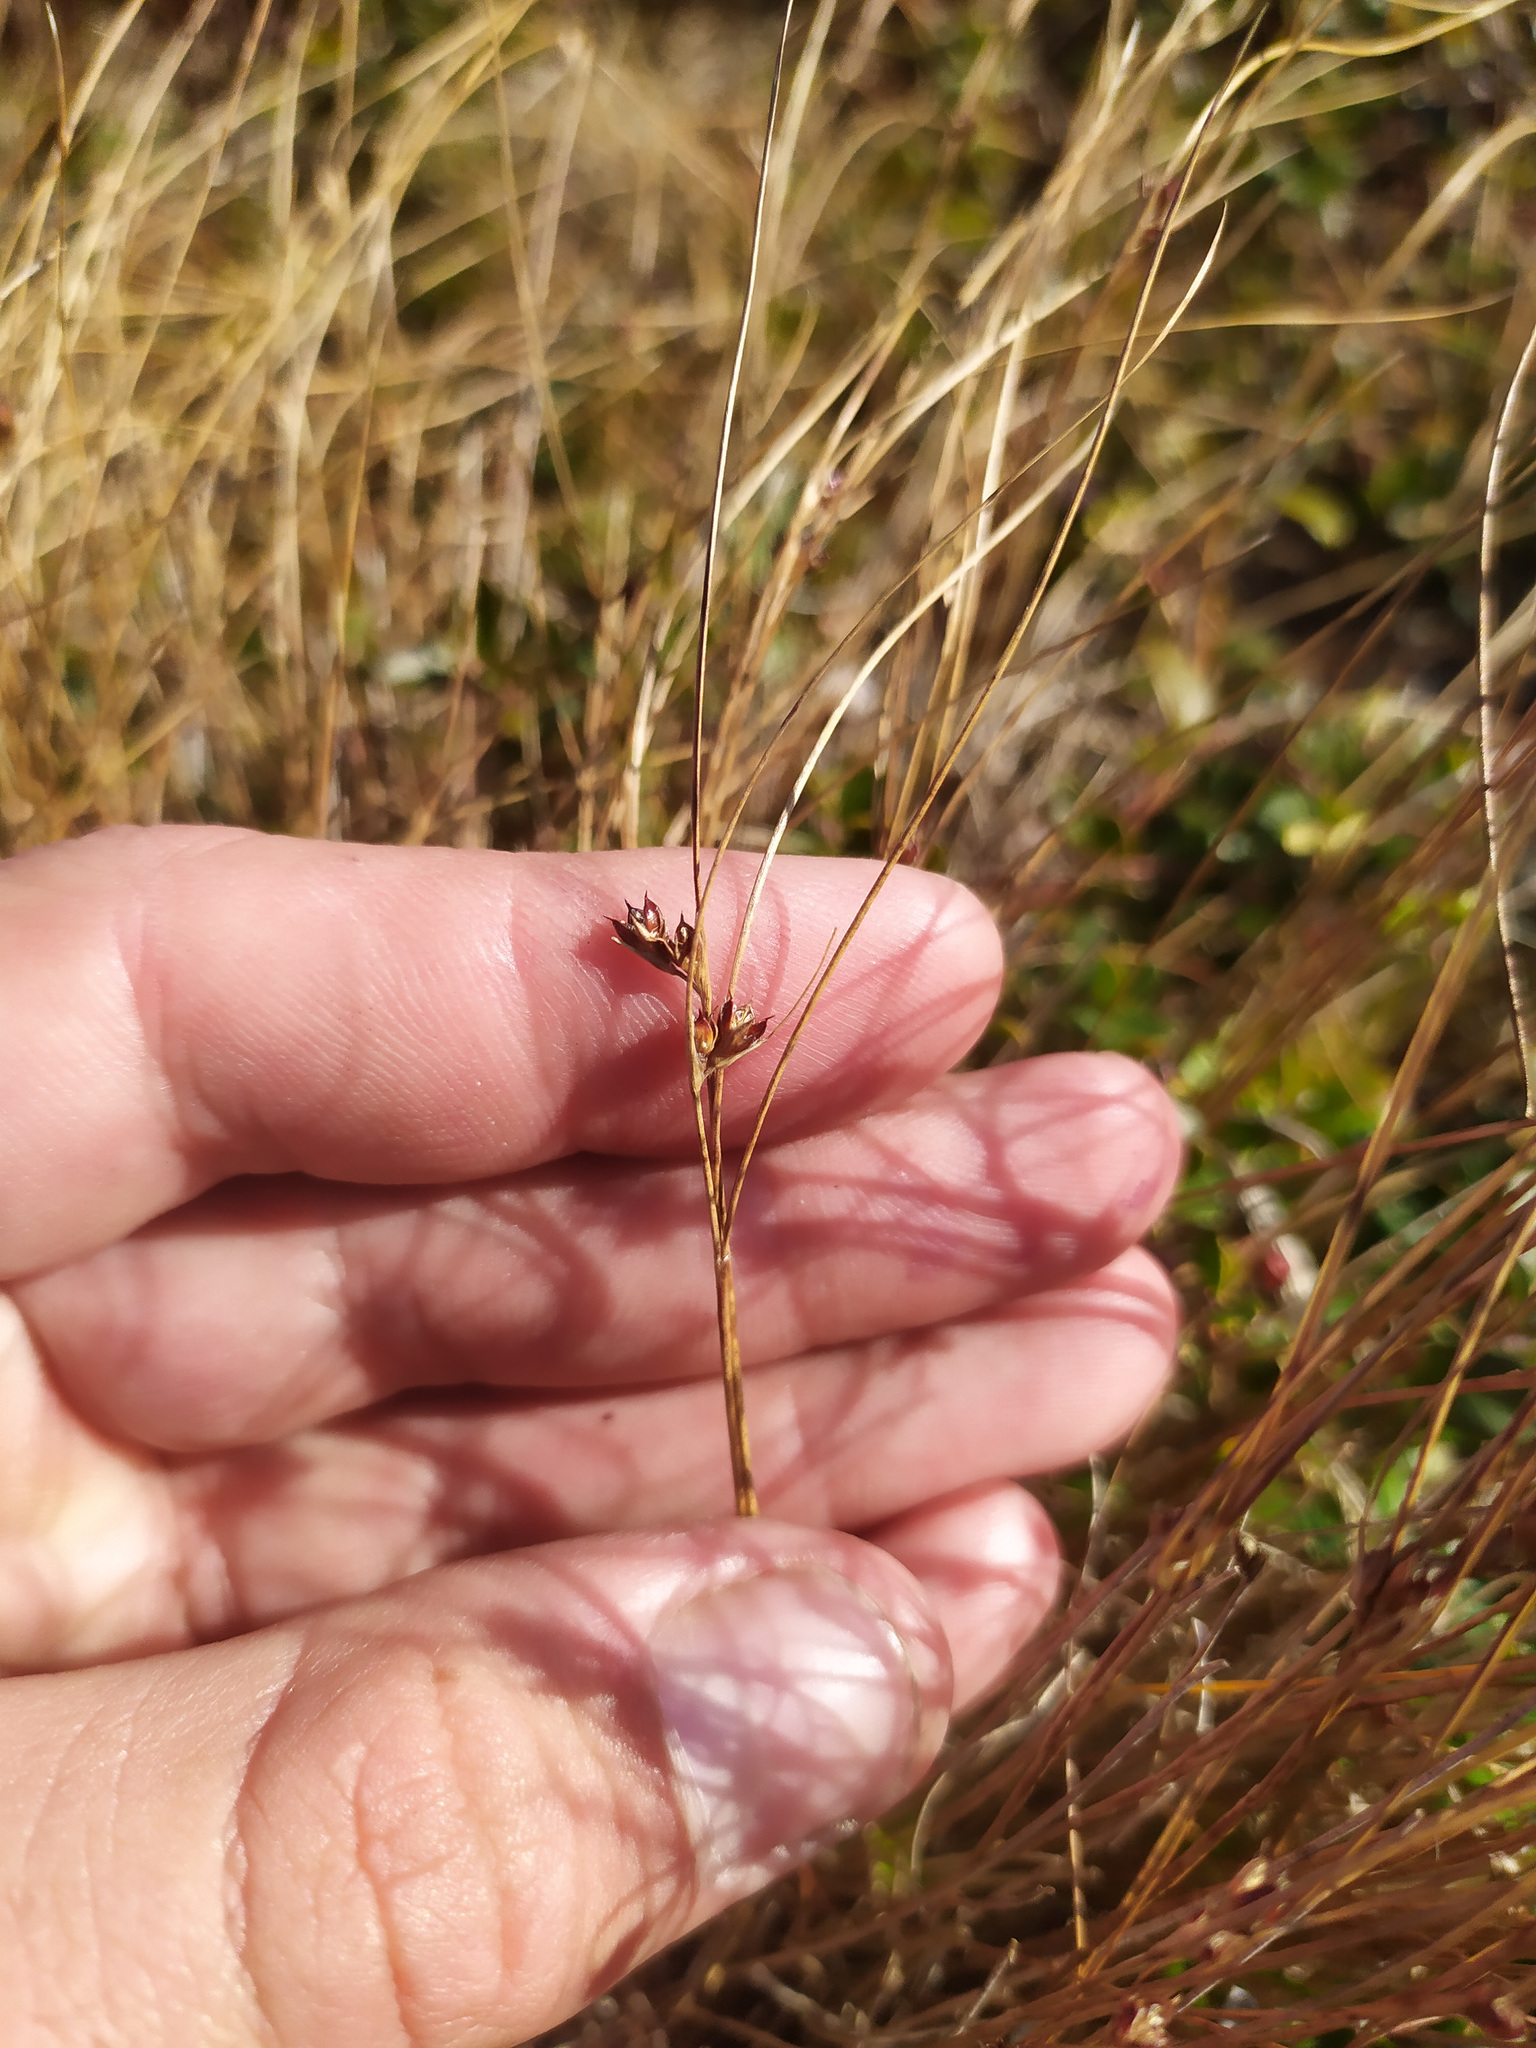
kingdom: Plantae
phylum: Tracheophyta
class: Liliopsida
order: Poales
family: Juncaceae
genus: Oreojuncus
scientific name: Oreojuncus trifidus
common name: Highland rush
